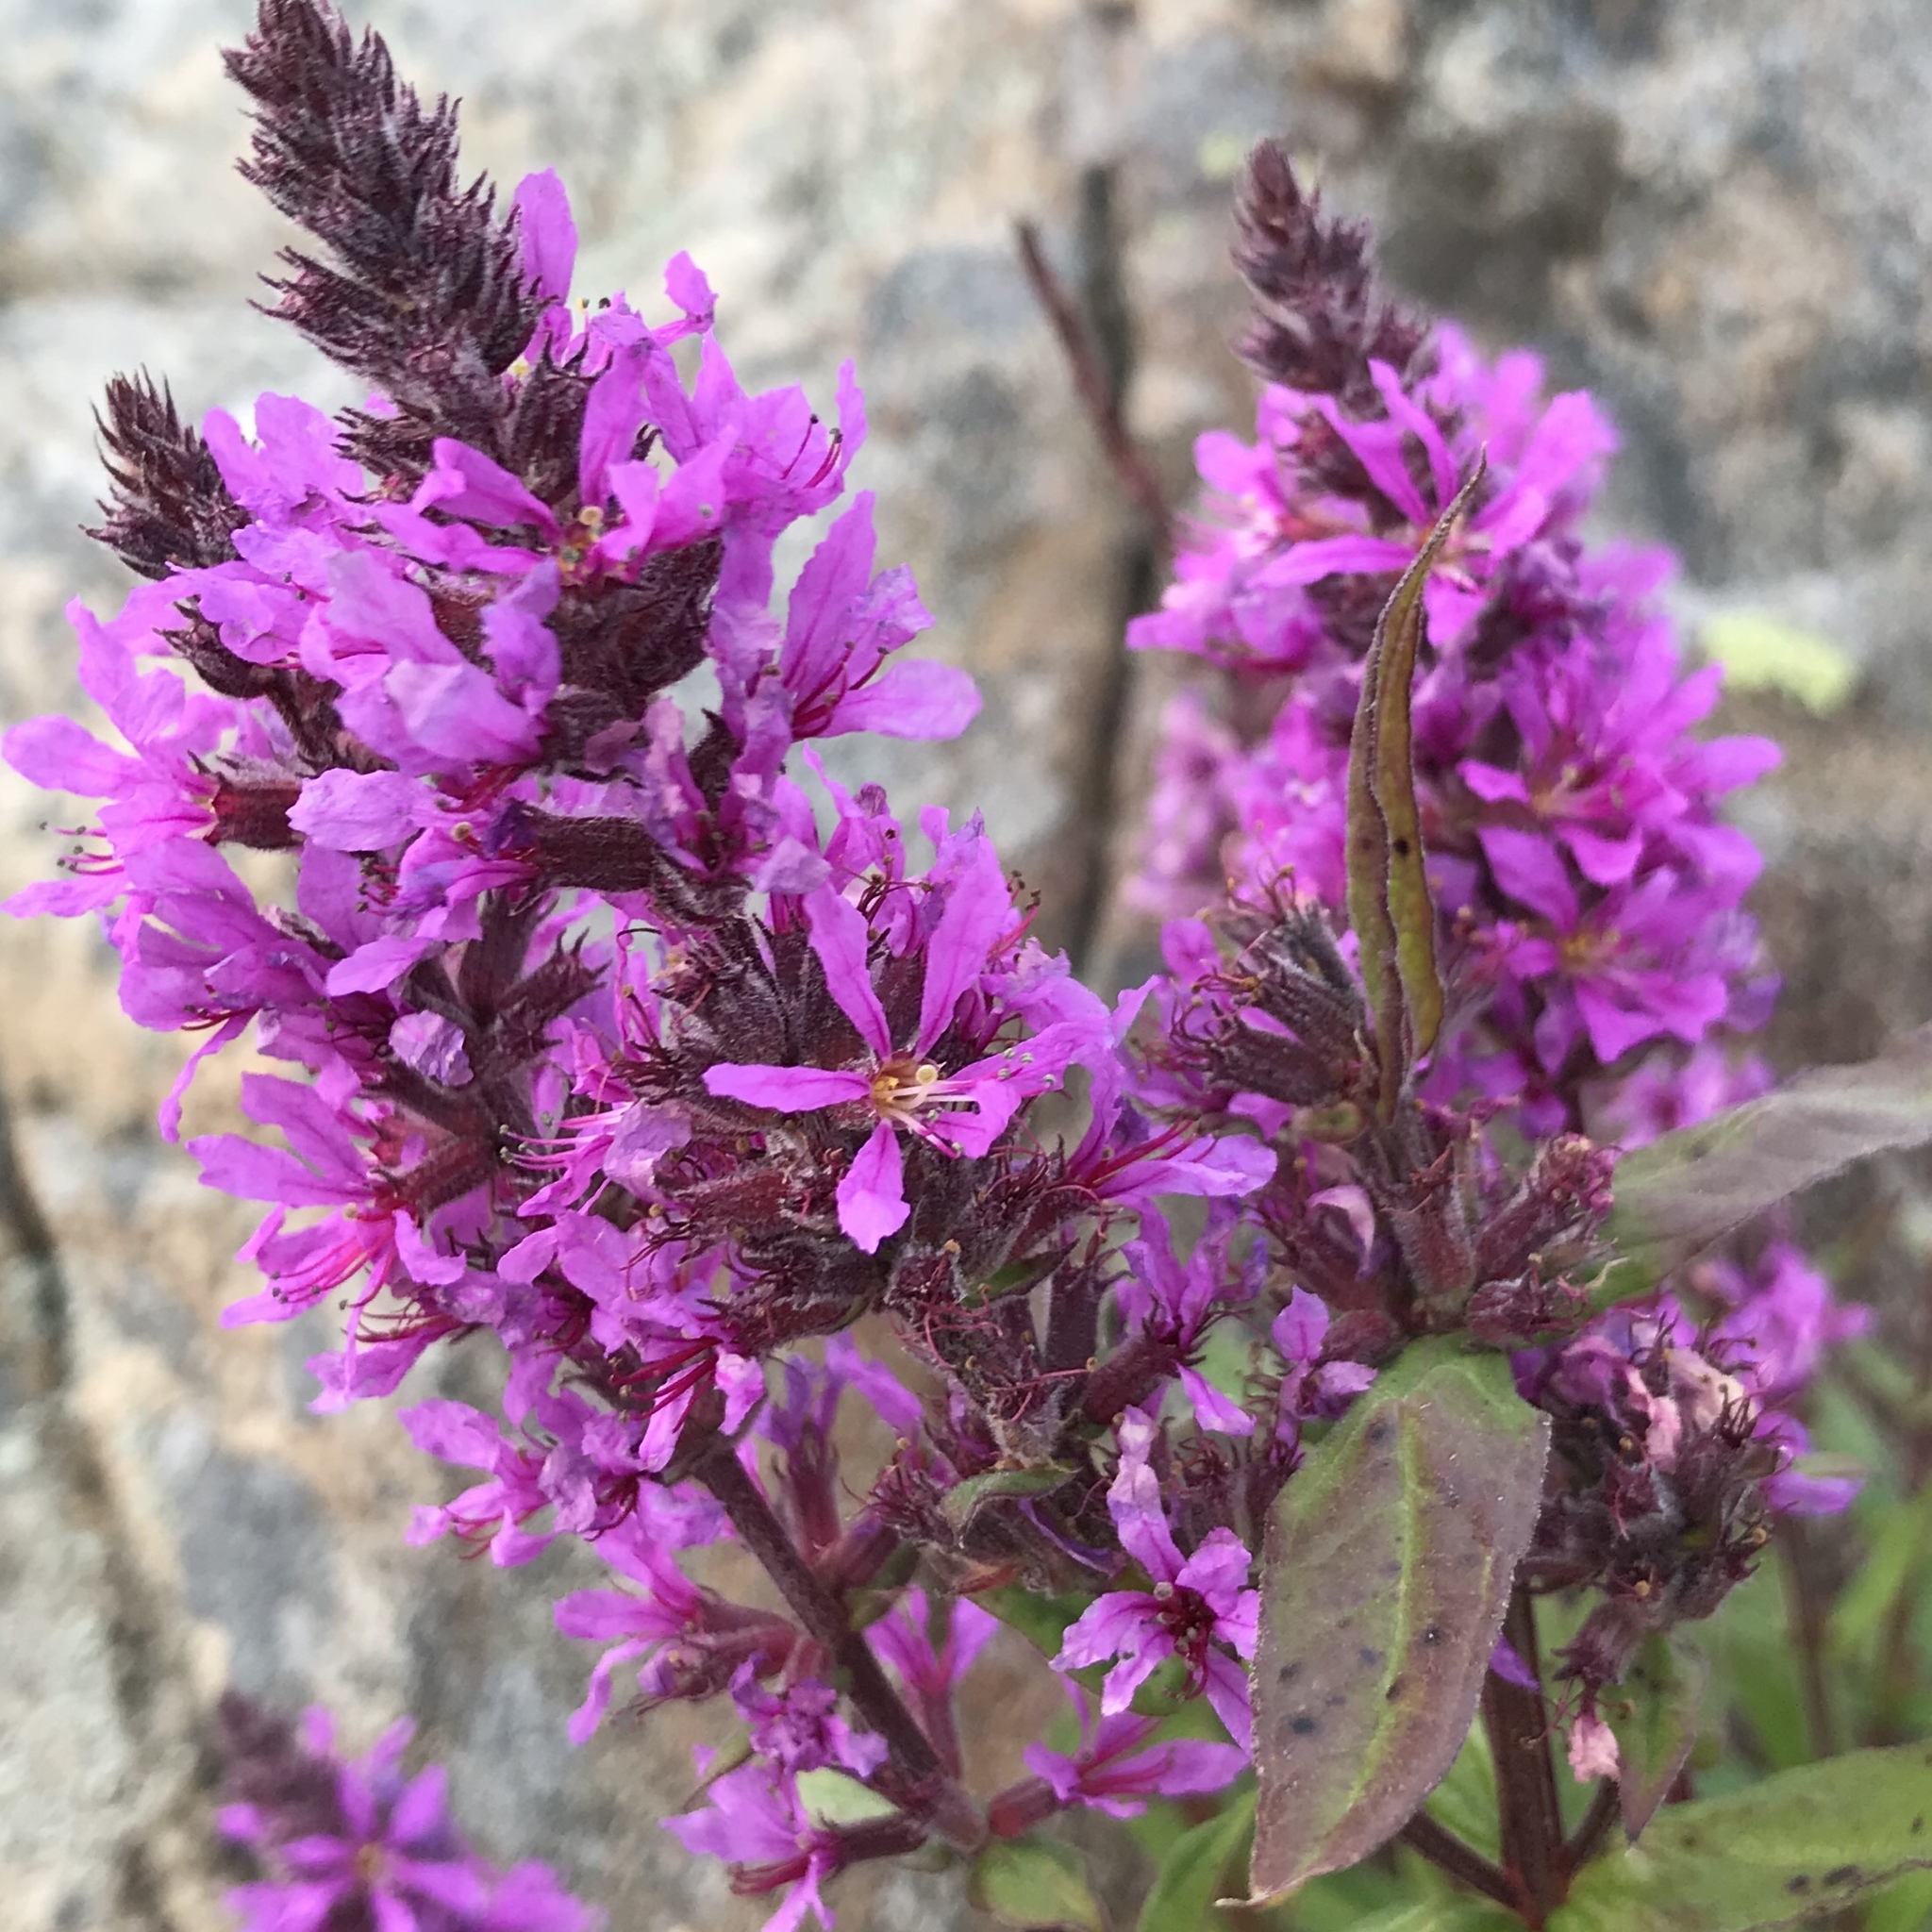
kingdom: Plantae
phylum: Tracheophyta
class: Magnoliopsida
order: Myrtales
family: Lythraceae
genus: Lythrum
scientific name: Lythrum salicaria
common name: Purple loosestrife
